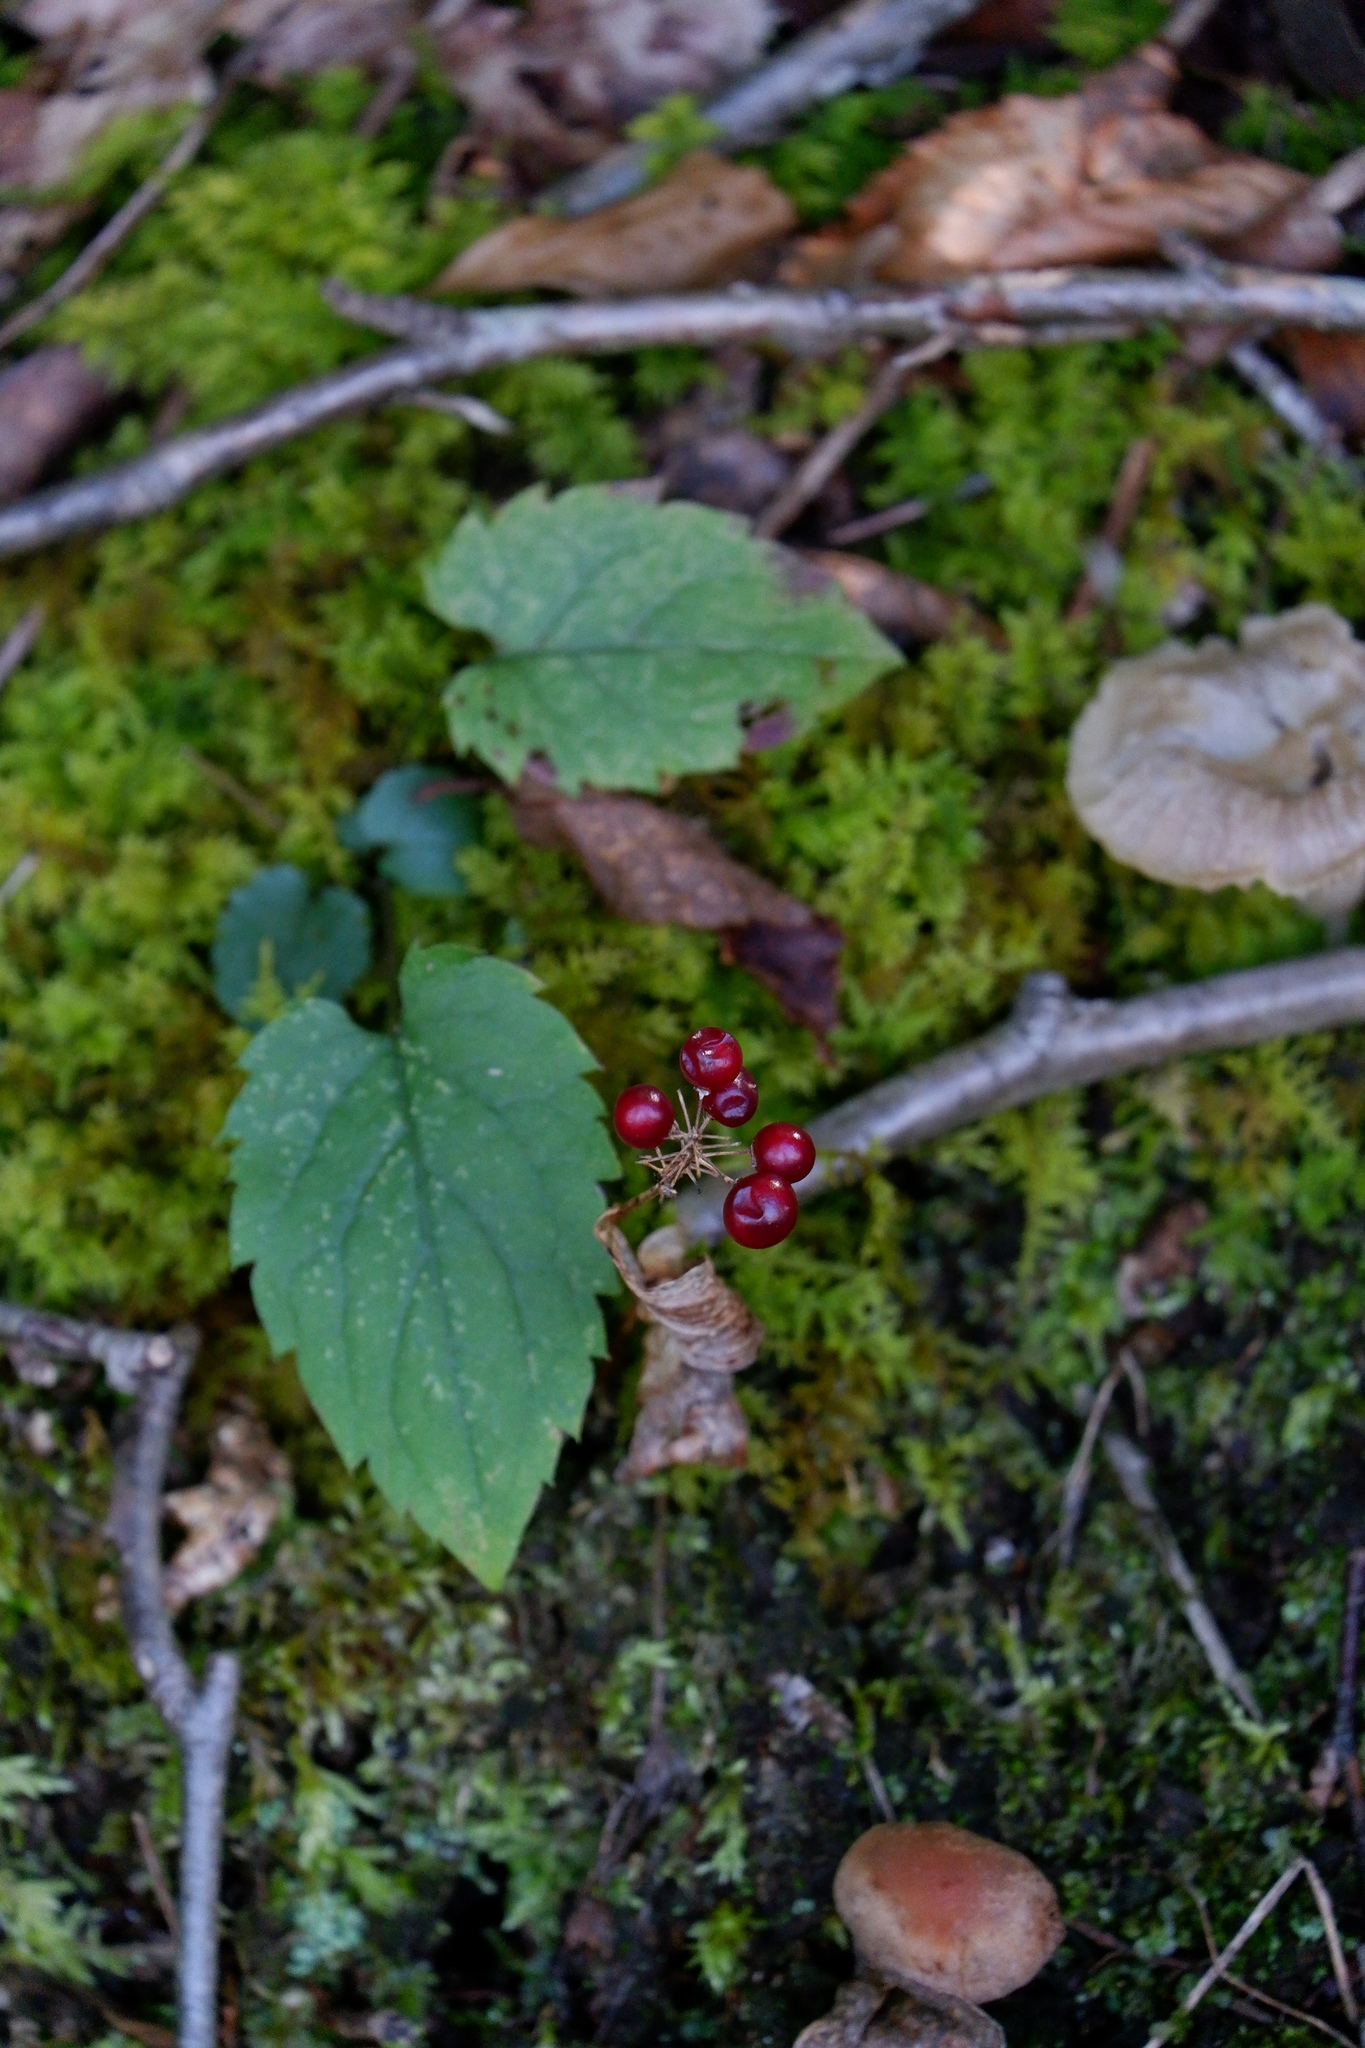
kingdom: Plantae
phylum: Tracheophyta
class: Liliopsida
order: Asparagales
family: Asparagaceae
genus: Maianthemum
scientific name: Maianthemum canadense
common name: False lily-of-the-valley
